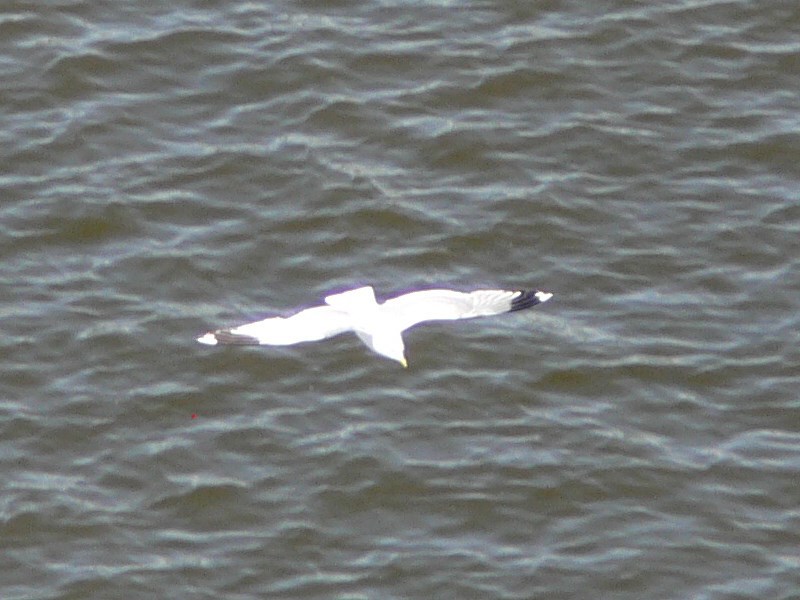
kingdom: Animalia
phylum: Chordata
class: Aves
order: Charadriiformes
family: Laridae
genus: Larus
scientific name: Larus canus
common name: Mew gull
